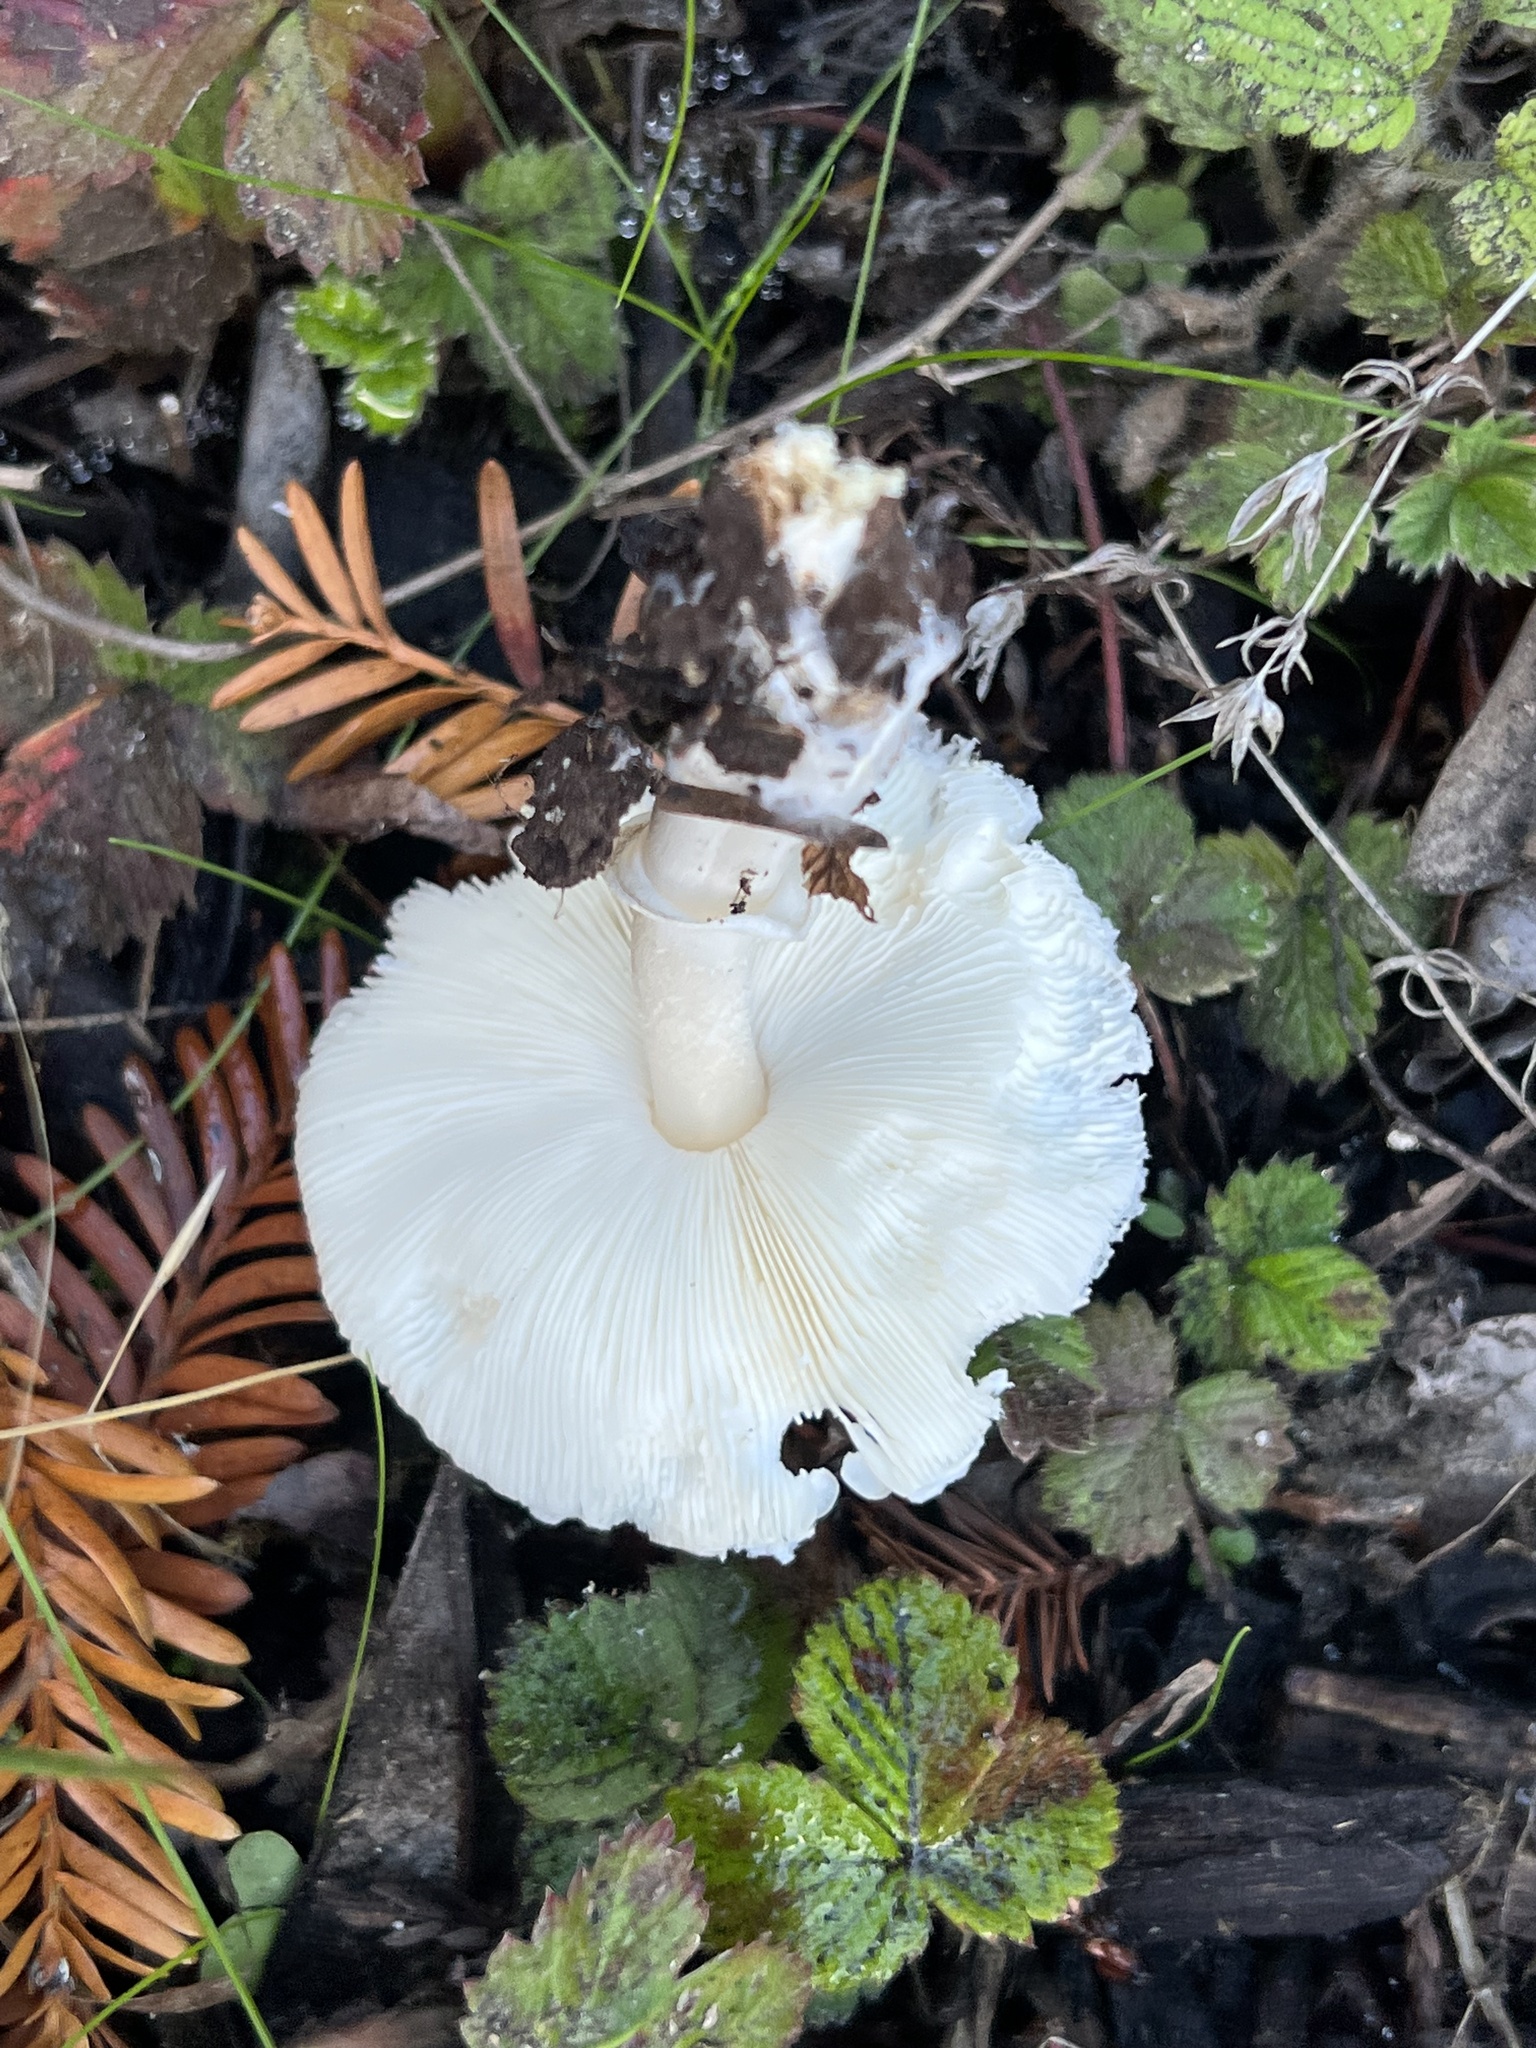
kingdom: Fungi
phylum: Basidiomycota
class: Agaricomycetes
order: Agaricales
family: Agaricaceae
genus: Lepiota
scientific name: Lepiota rubrotinctoides
